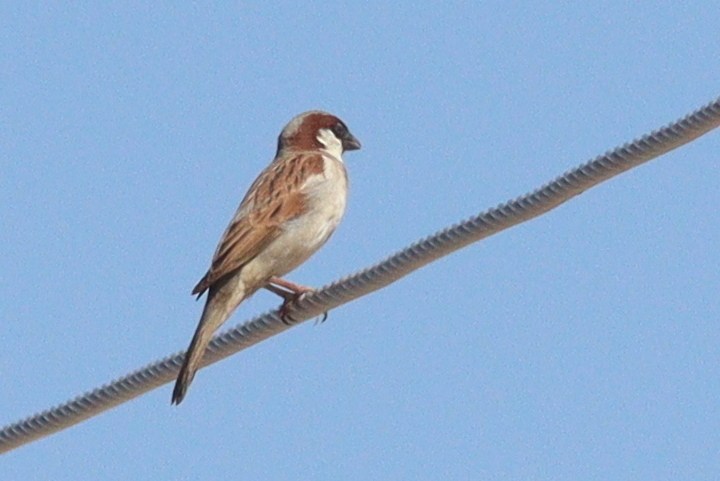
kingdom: Animalia
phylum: Chordata
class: Aves
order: Passeriformes
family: Passeridae
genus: Passer
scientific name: Passer domesticus
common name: House sparrow
